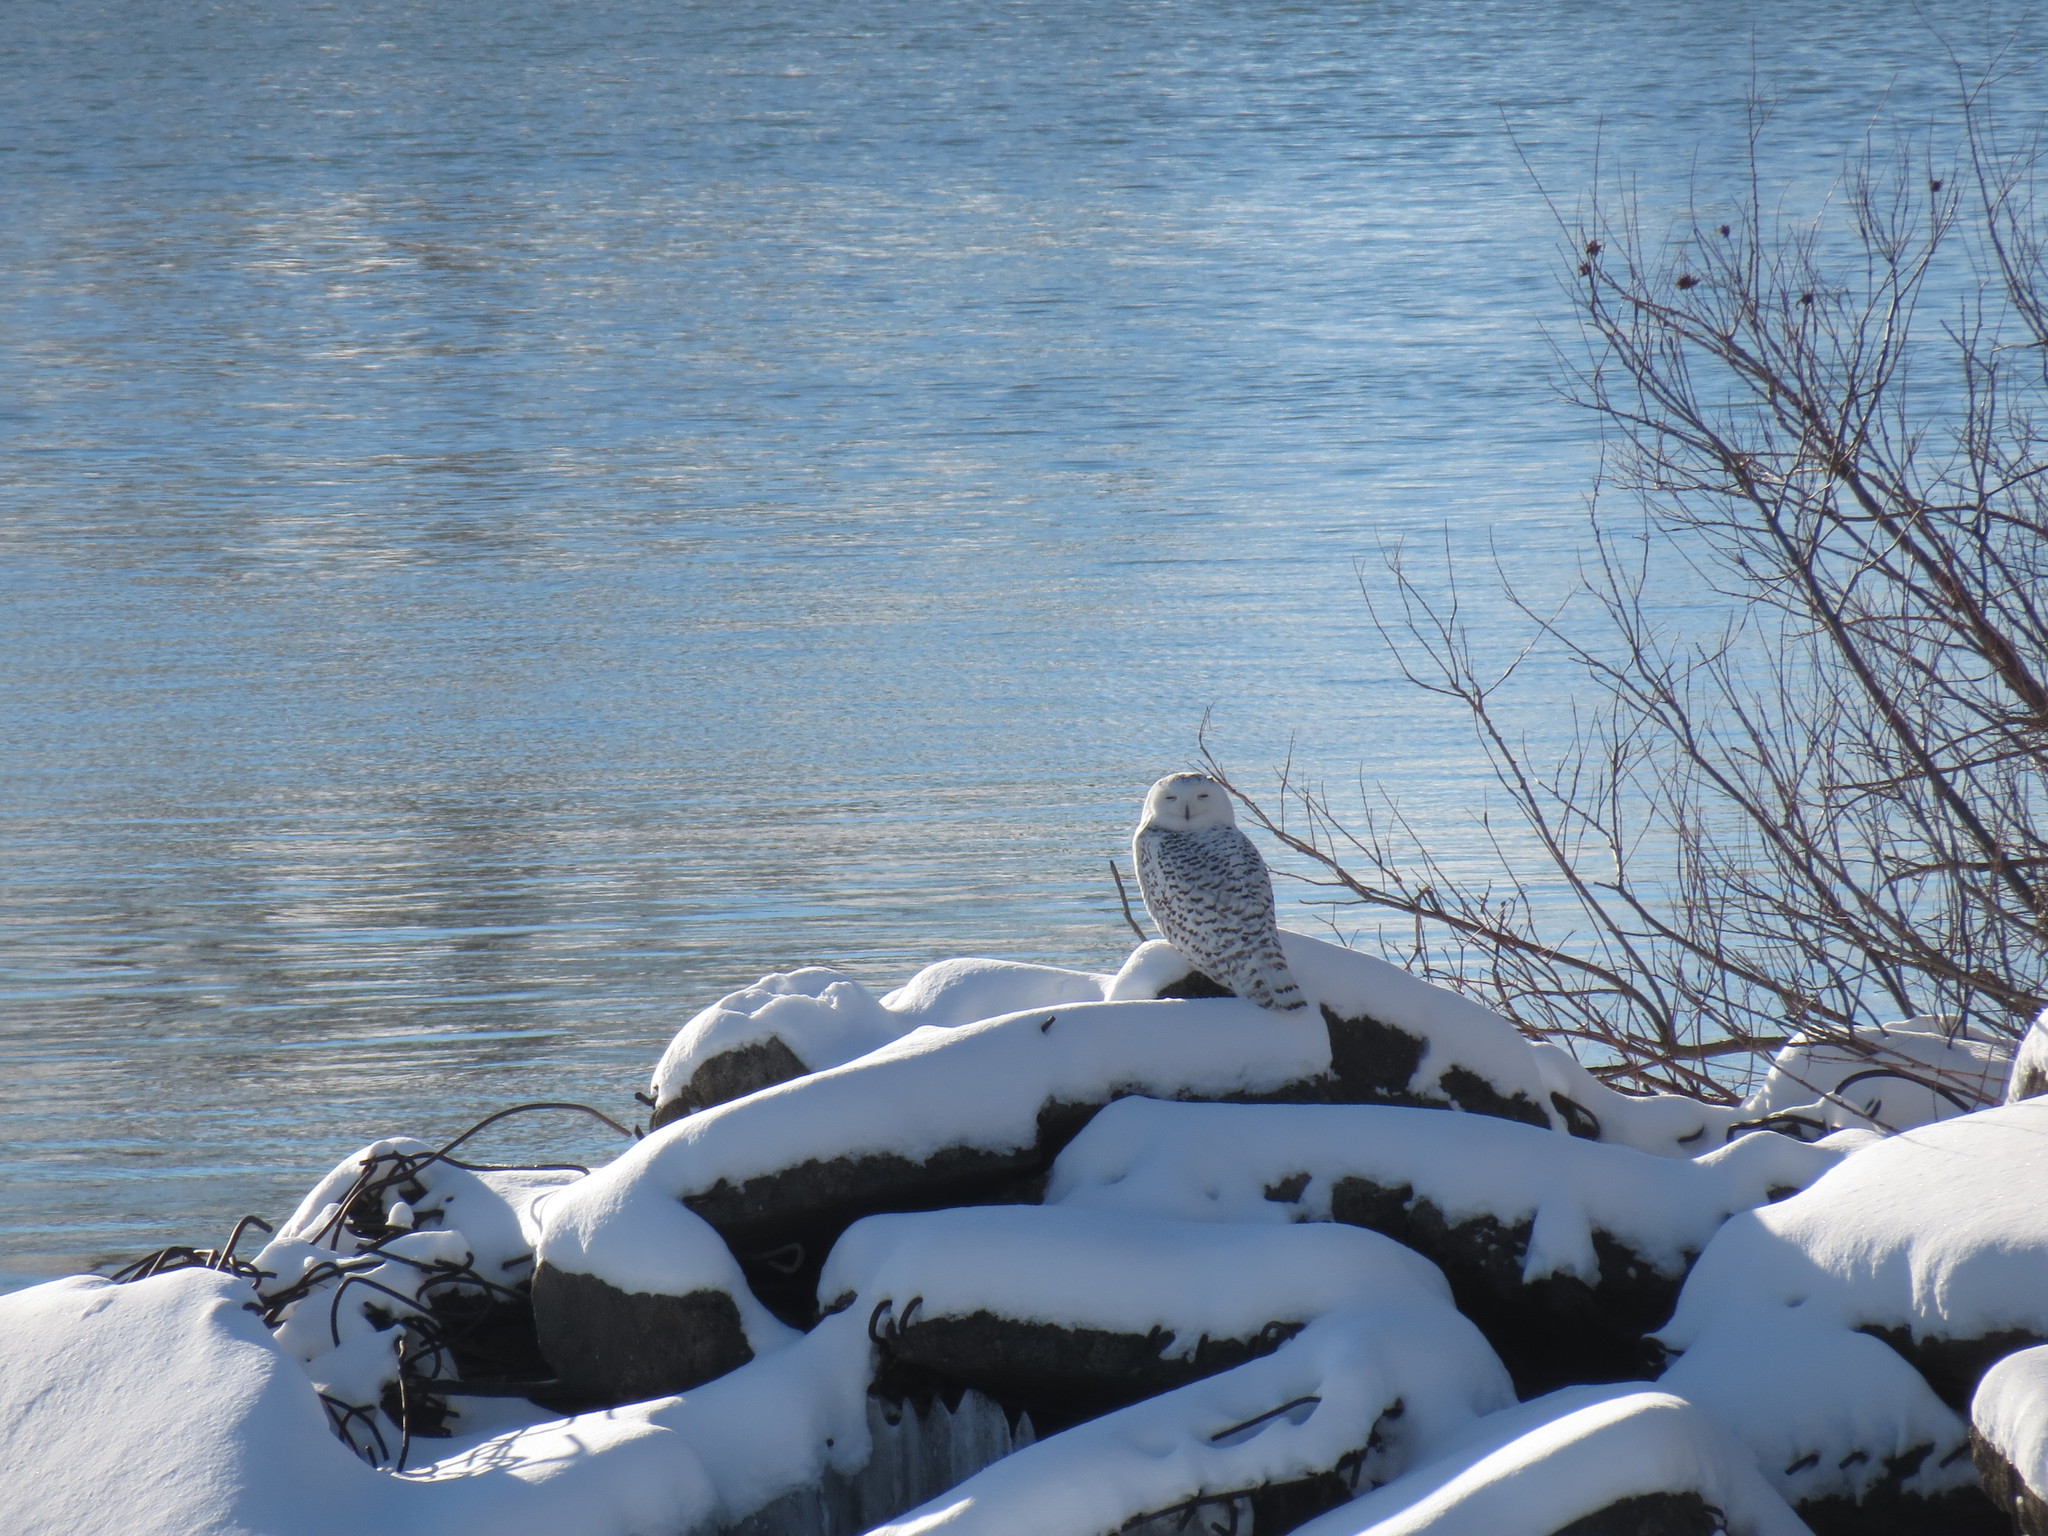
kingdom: Animalia
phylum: Chordata
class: Aves
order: Strigiformes
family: Strigidae
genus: Bubo
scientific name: Bubo scandiacus
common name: Snowy owl
